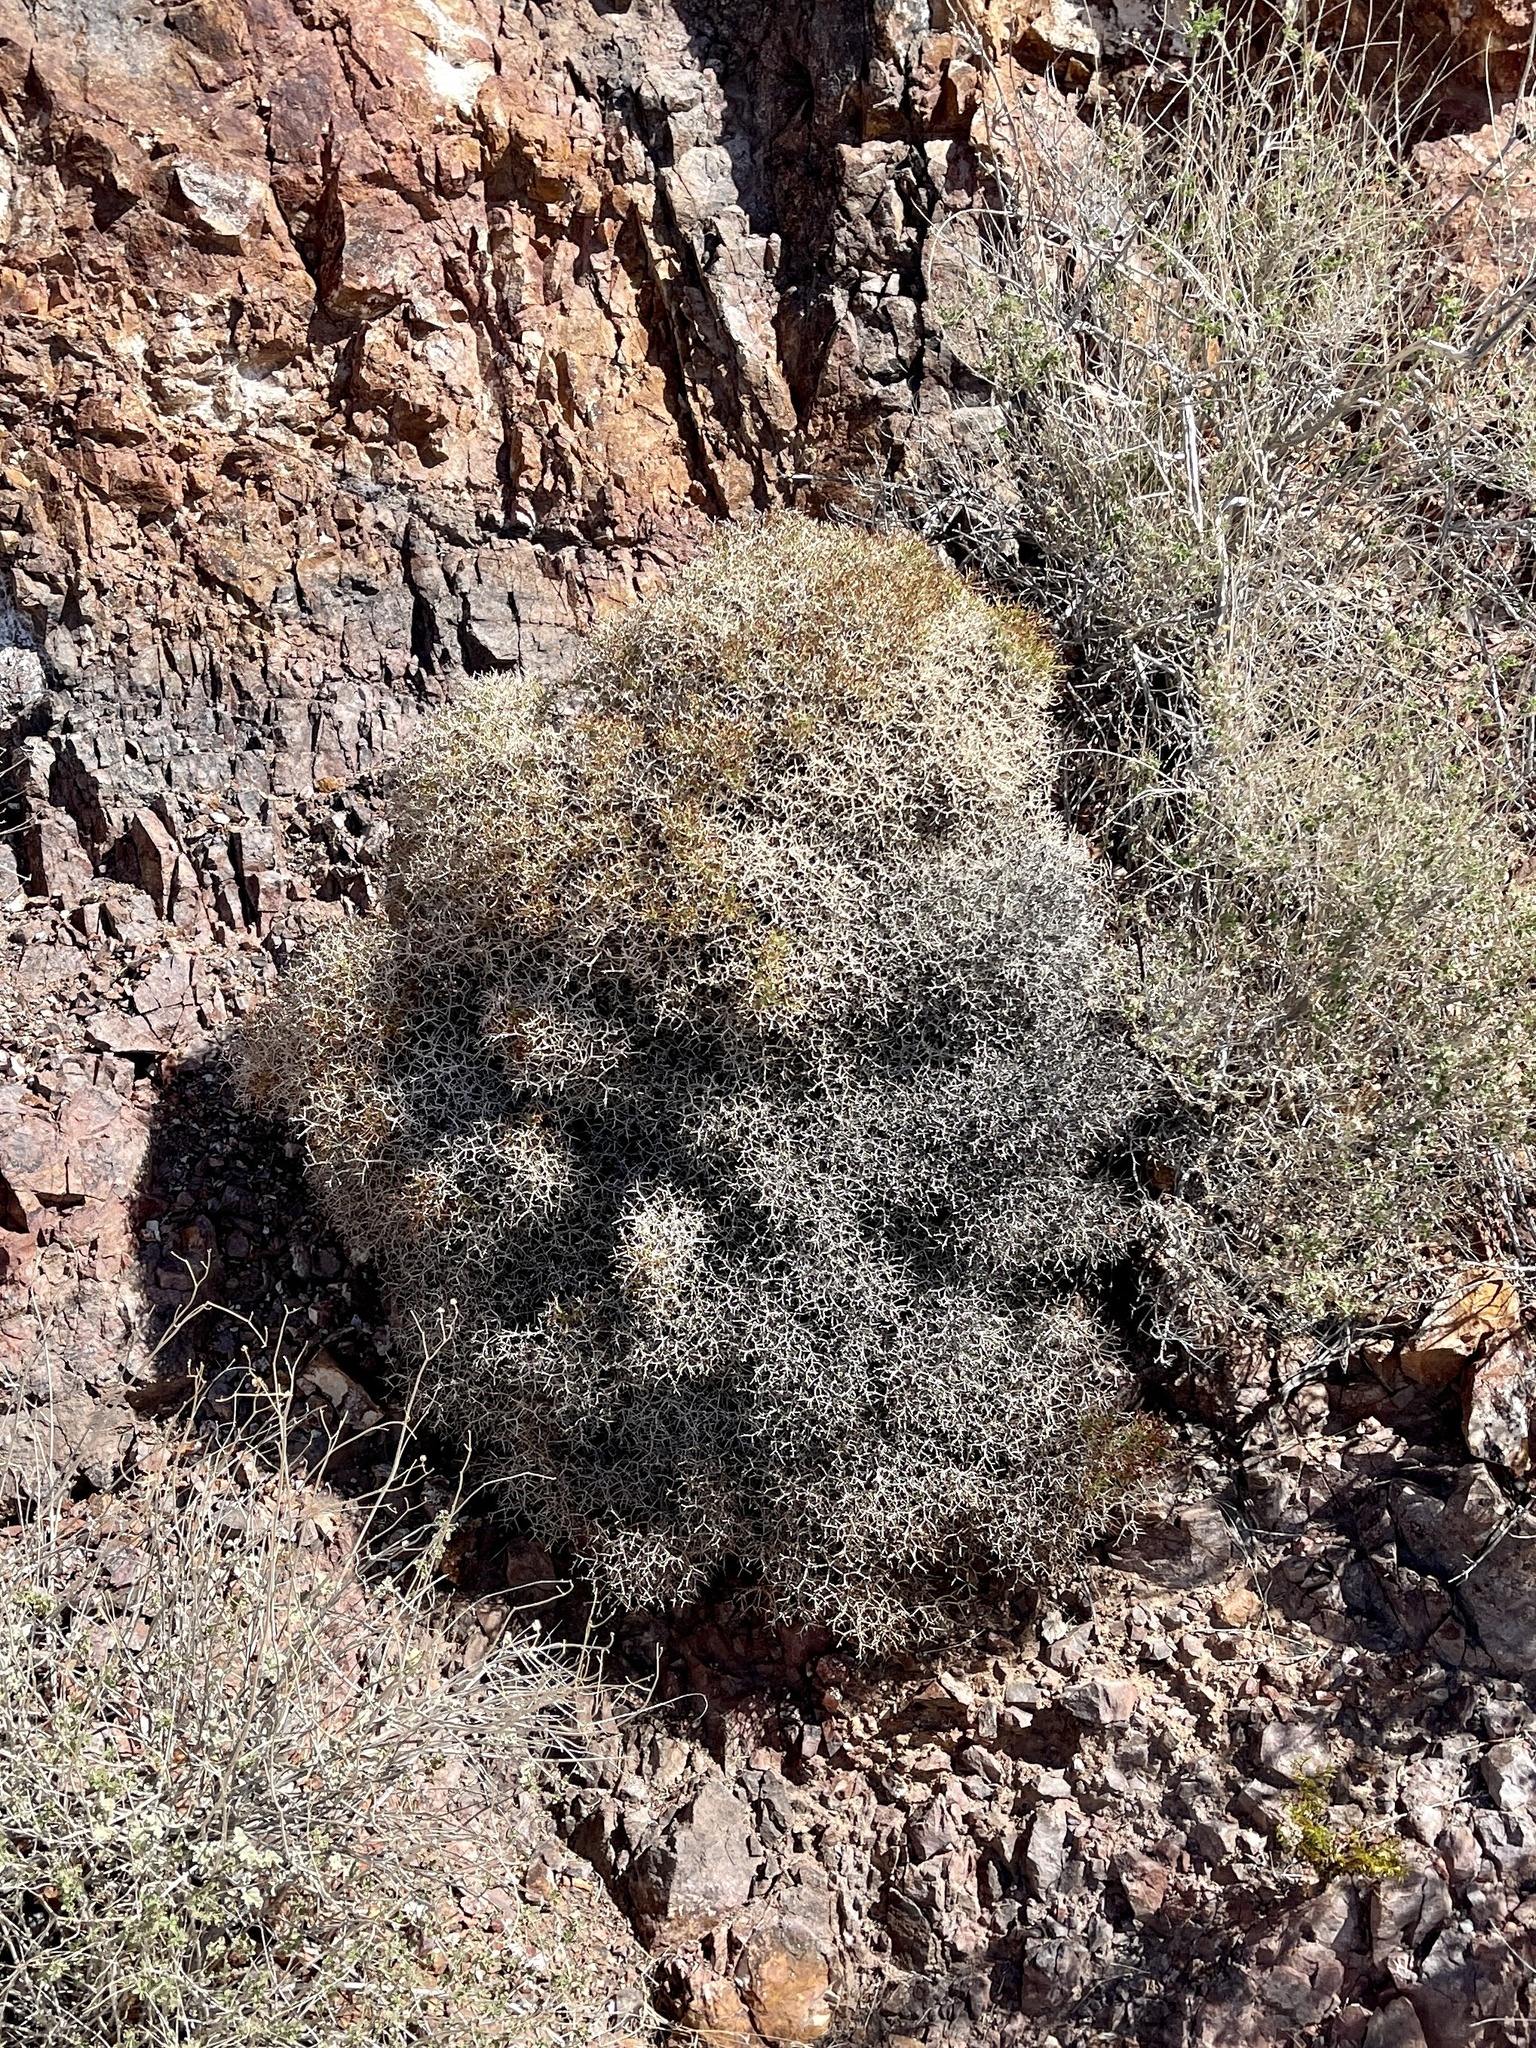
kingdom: Plantae
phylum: Tracheophyta
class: Magnoliopsida
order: Caryophyllales
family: Polygonaceae
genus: Eriogonum
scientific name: Eriogonum heermannii
